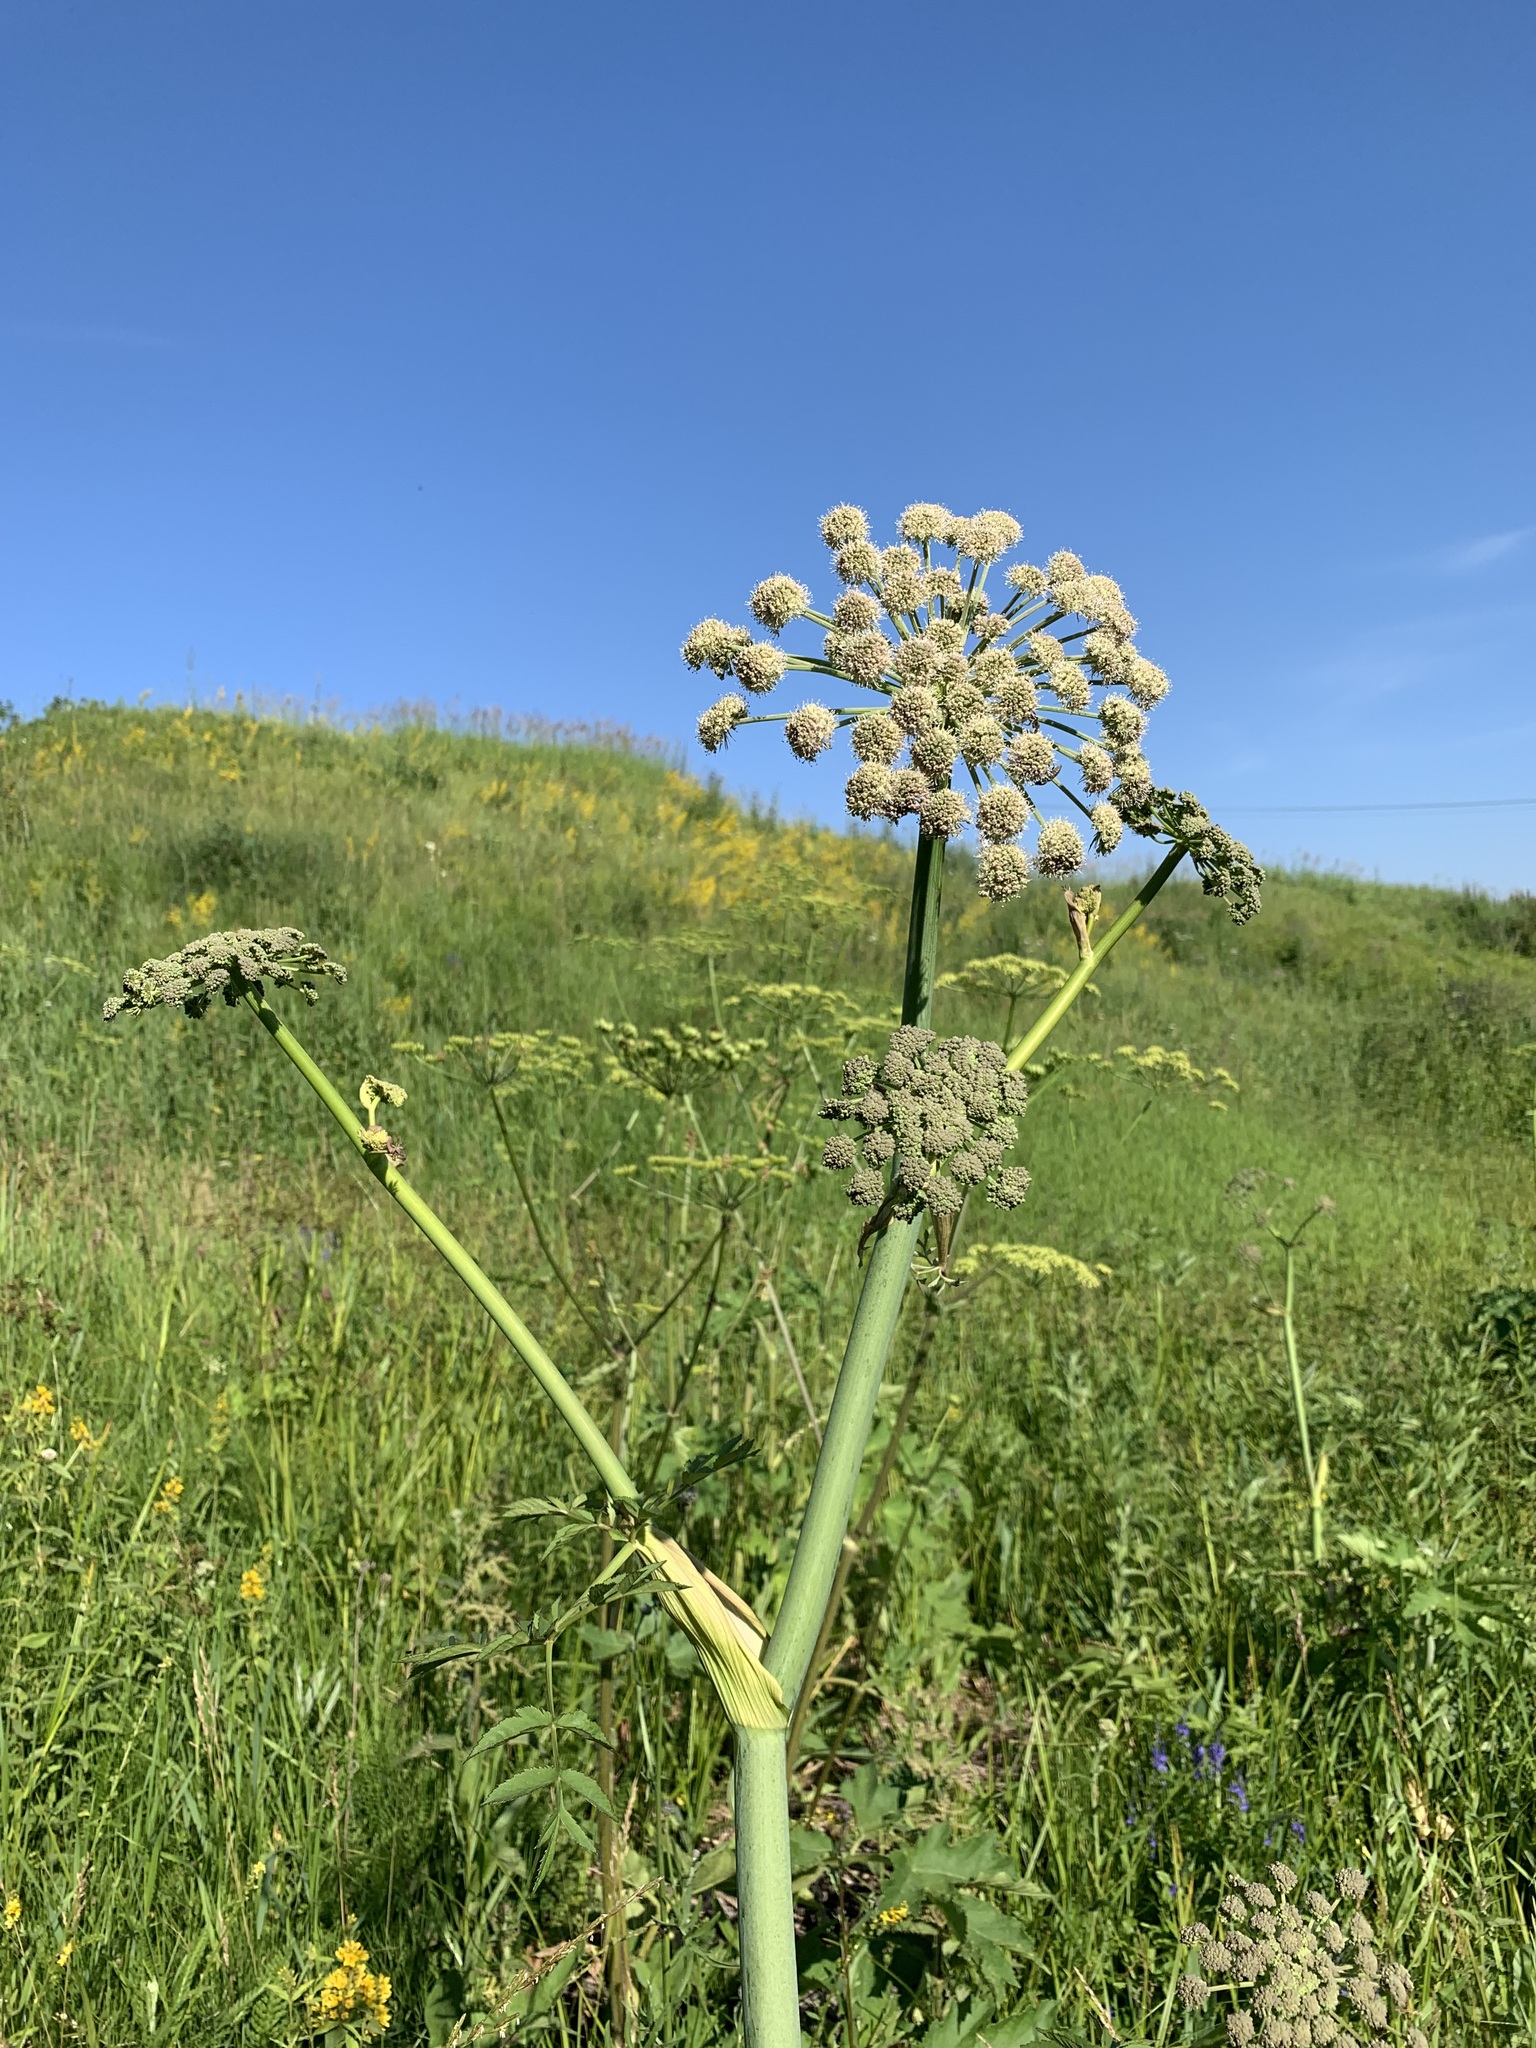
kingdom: Plantae
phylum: Tracheophyta
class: Magnoliopsida
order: Apiales
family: Apiaceae
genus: Angelica
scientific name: Angelica sylvestris
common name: Wild angelica
